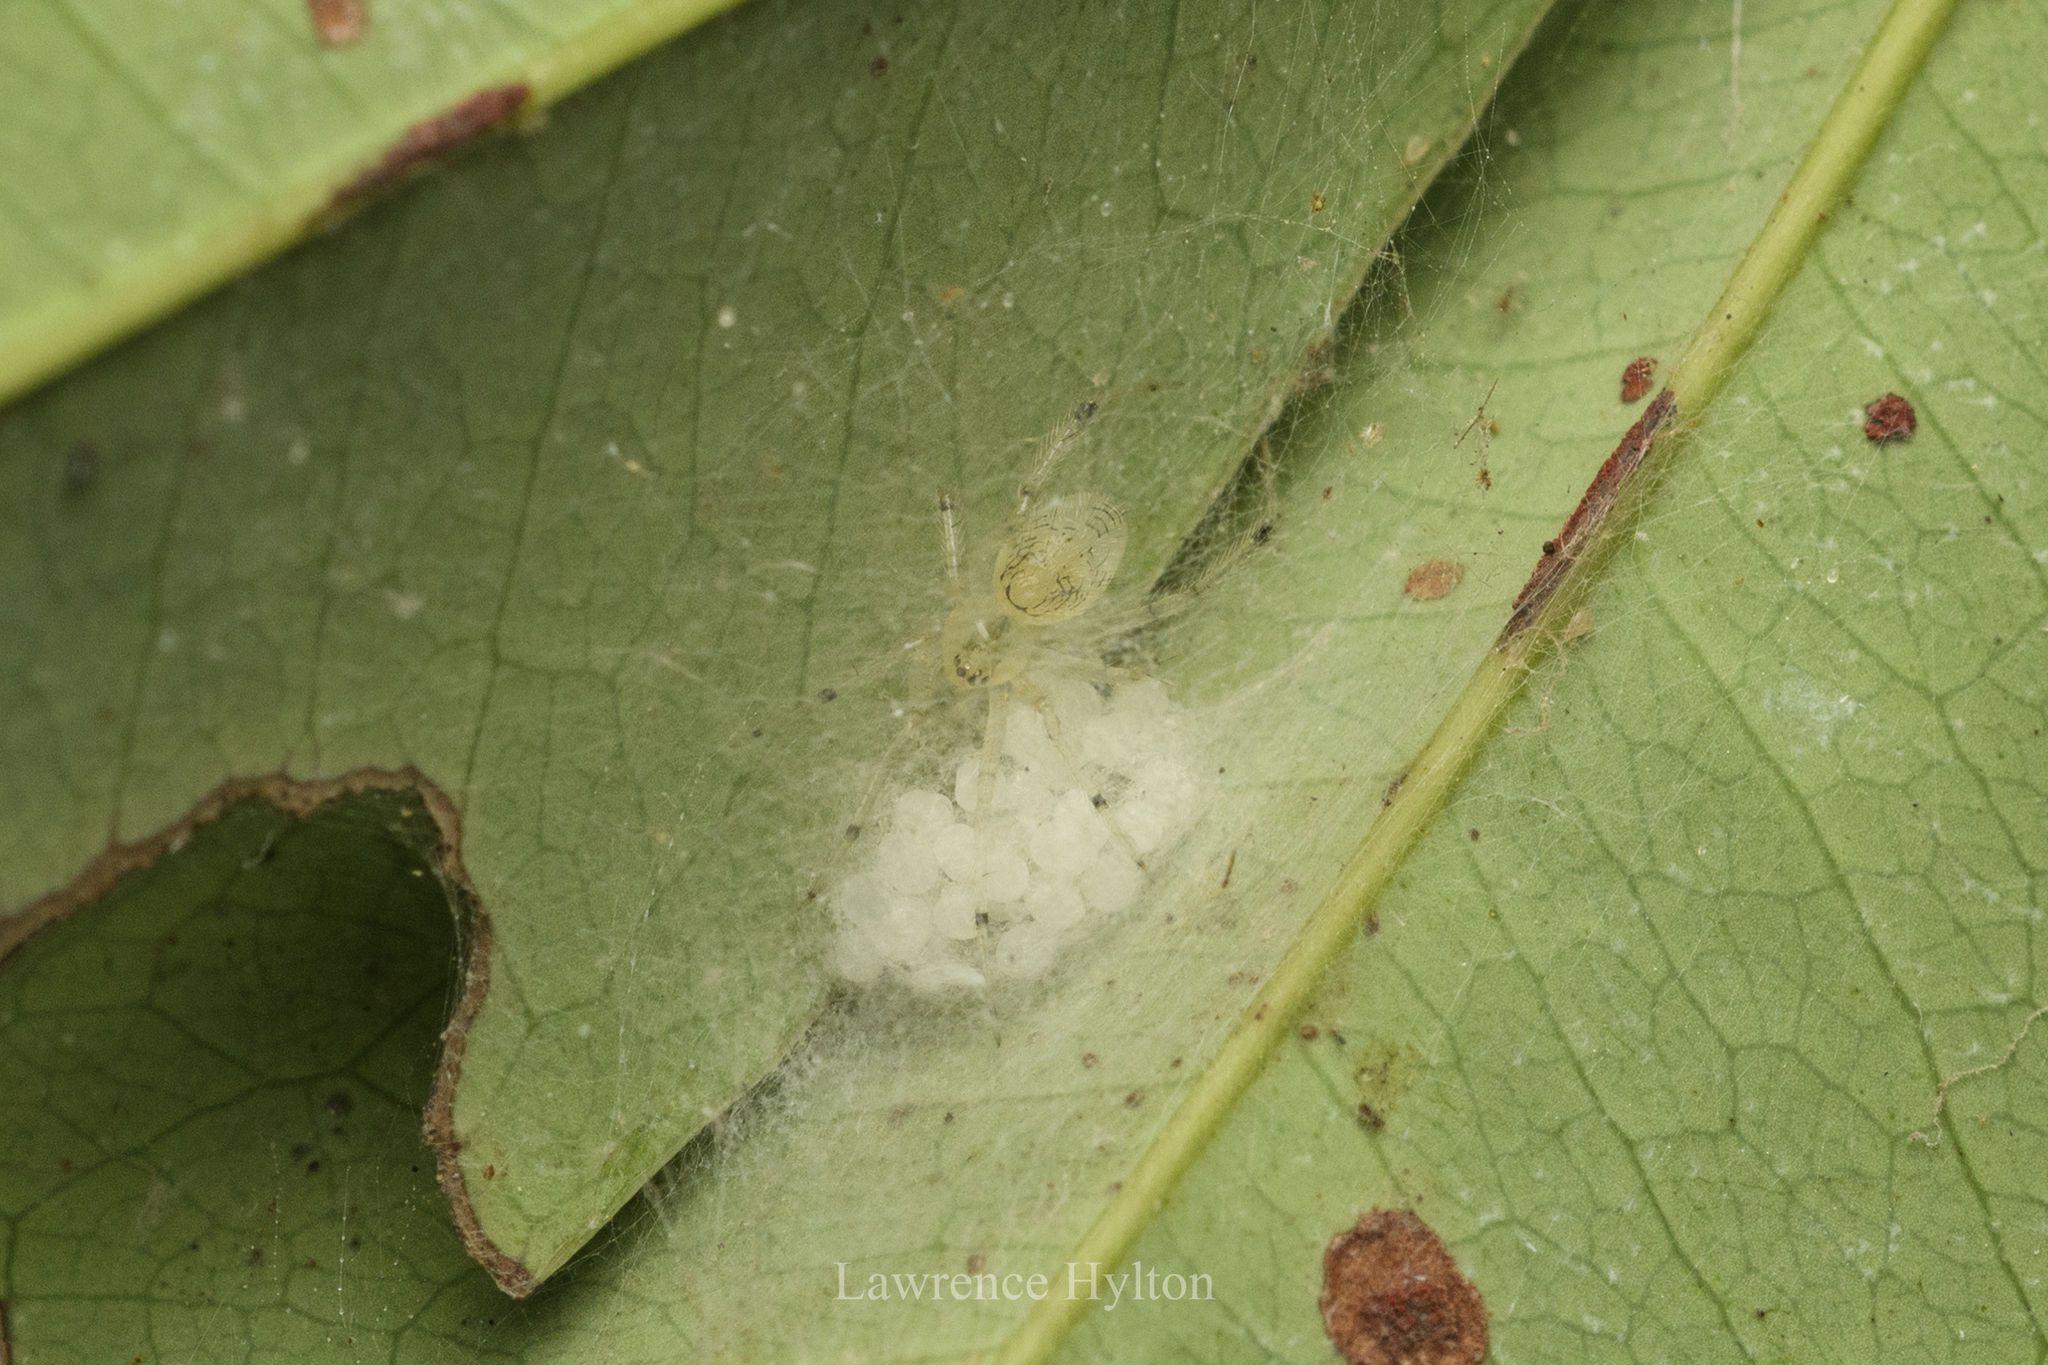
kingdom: Animalia
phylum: Arthropoda
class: Arachnida
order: Araneae
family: Theridiidae
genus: Phycosoma
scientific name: Phycosoma digitula
